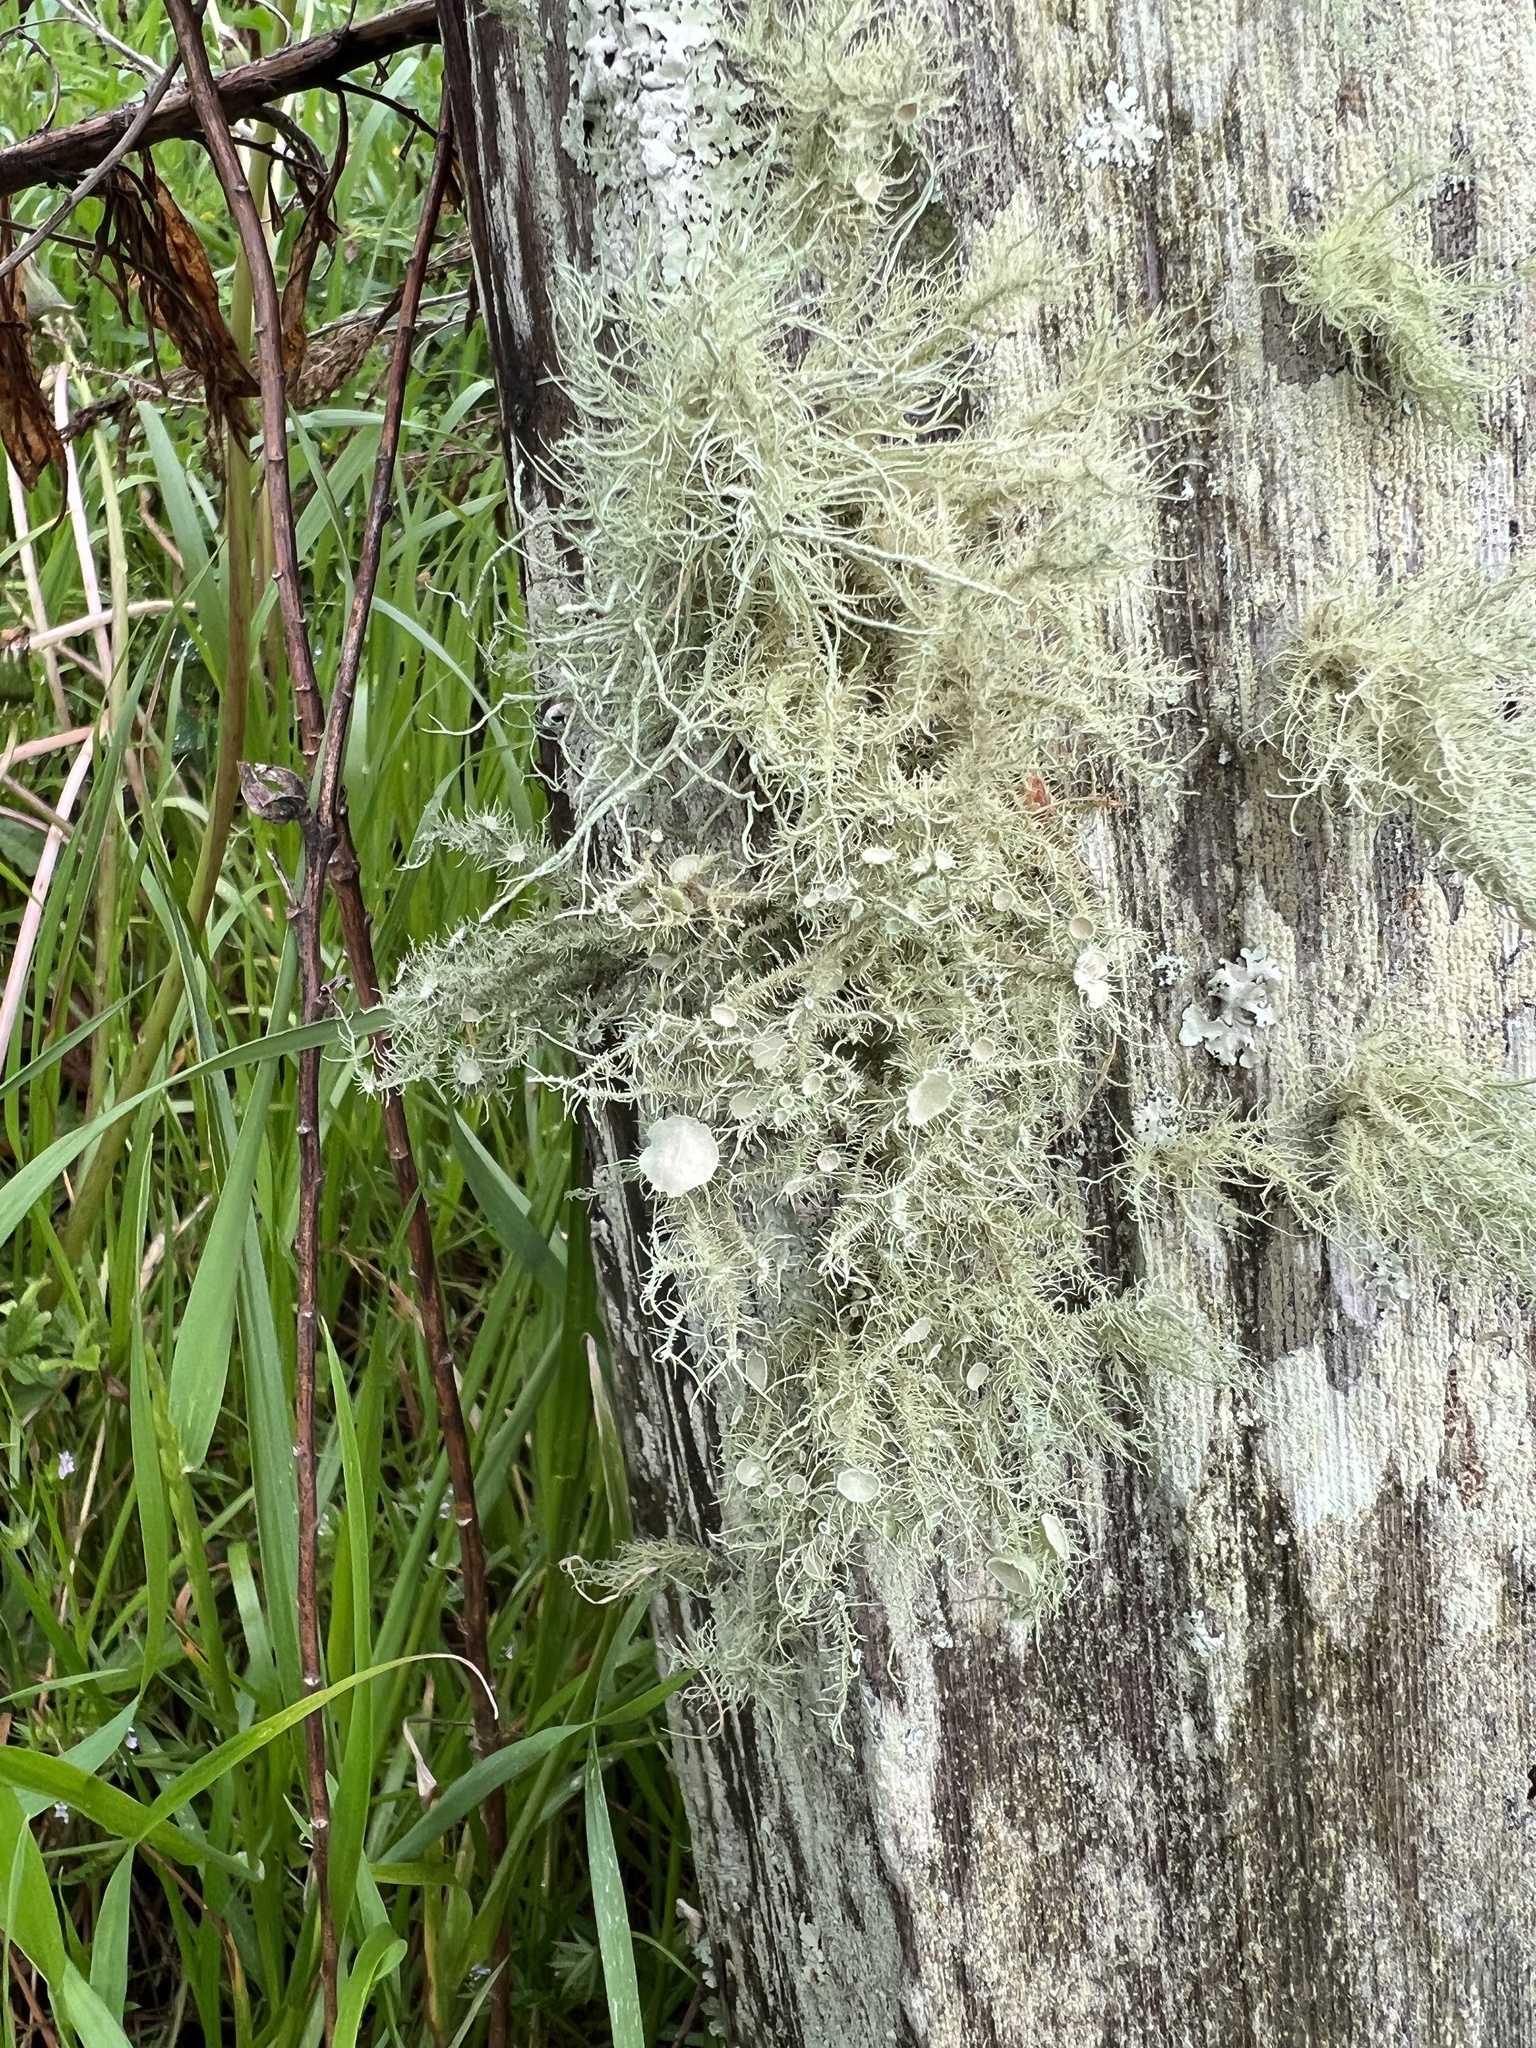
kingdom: Fungi
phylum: Ascomycota
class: Lecanoromycetes
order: Lecanorales
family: Parmeliaceae
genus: Usnea
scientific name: Usnea
